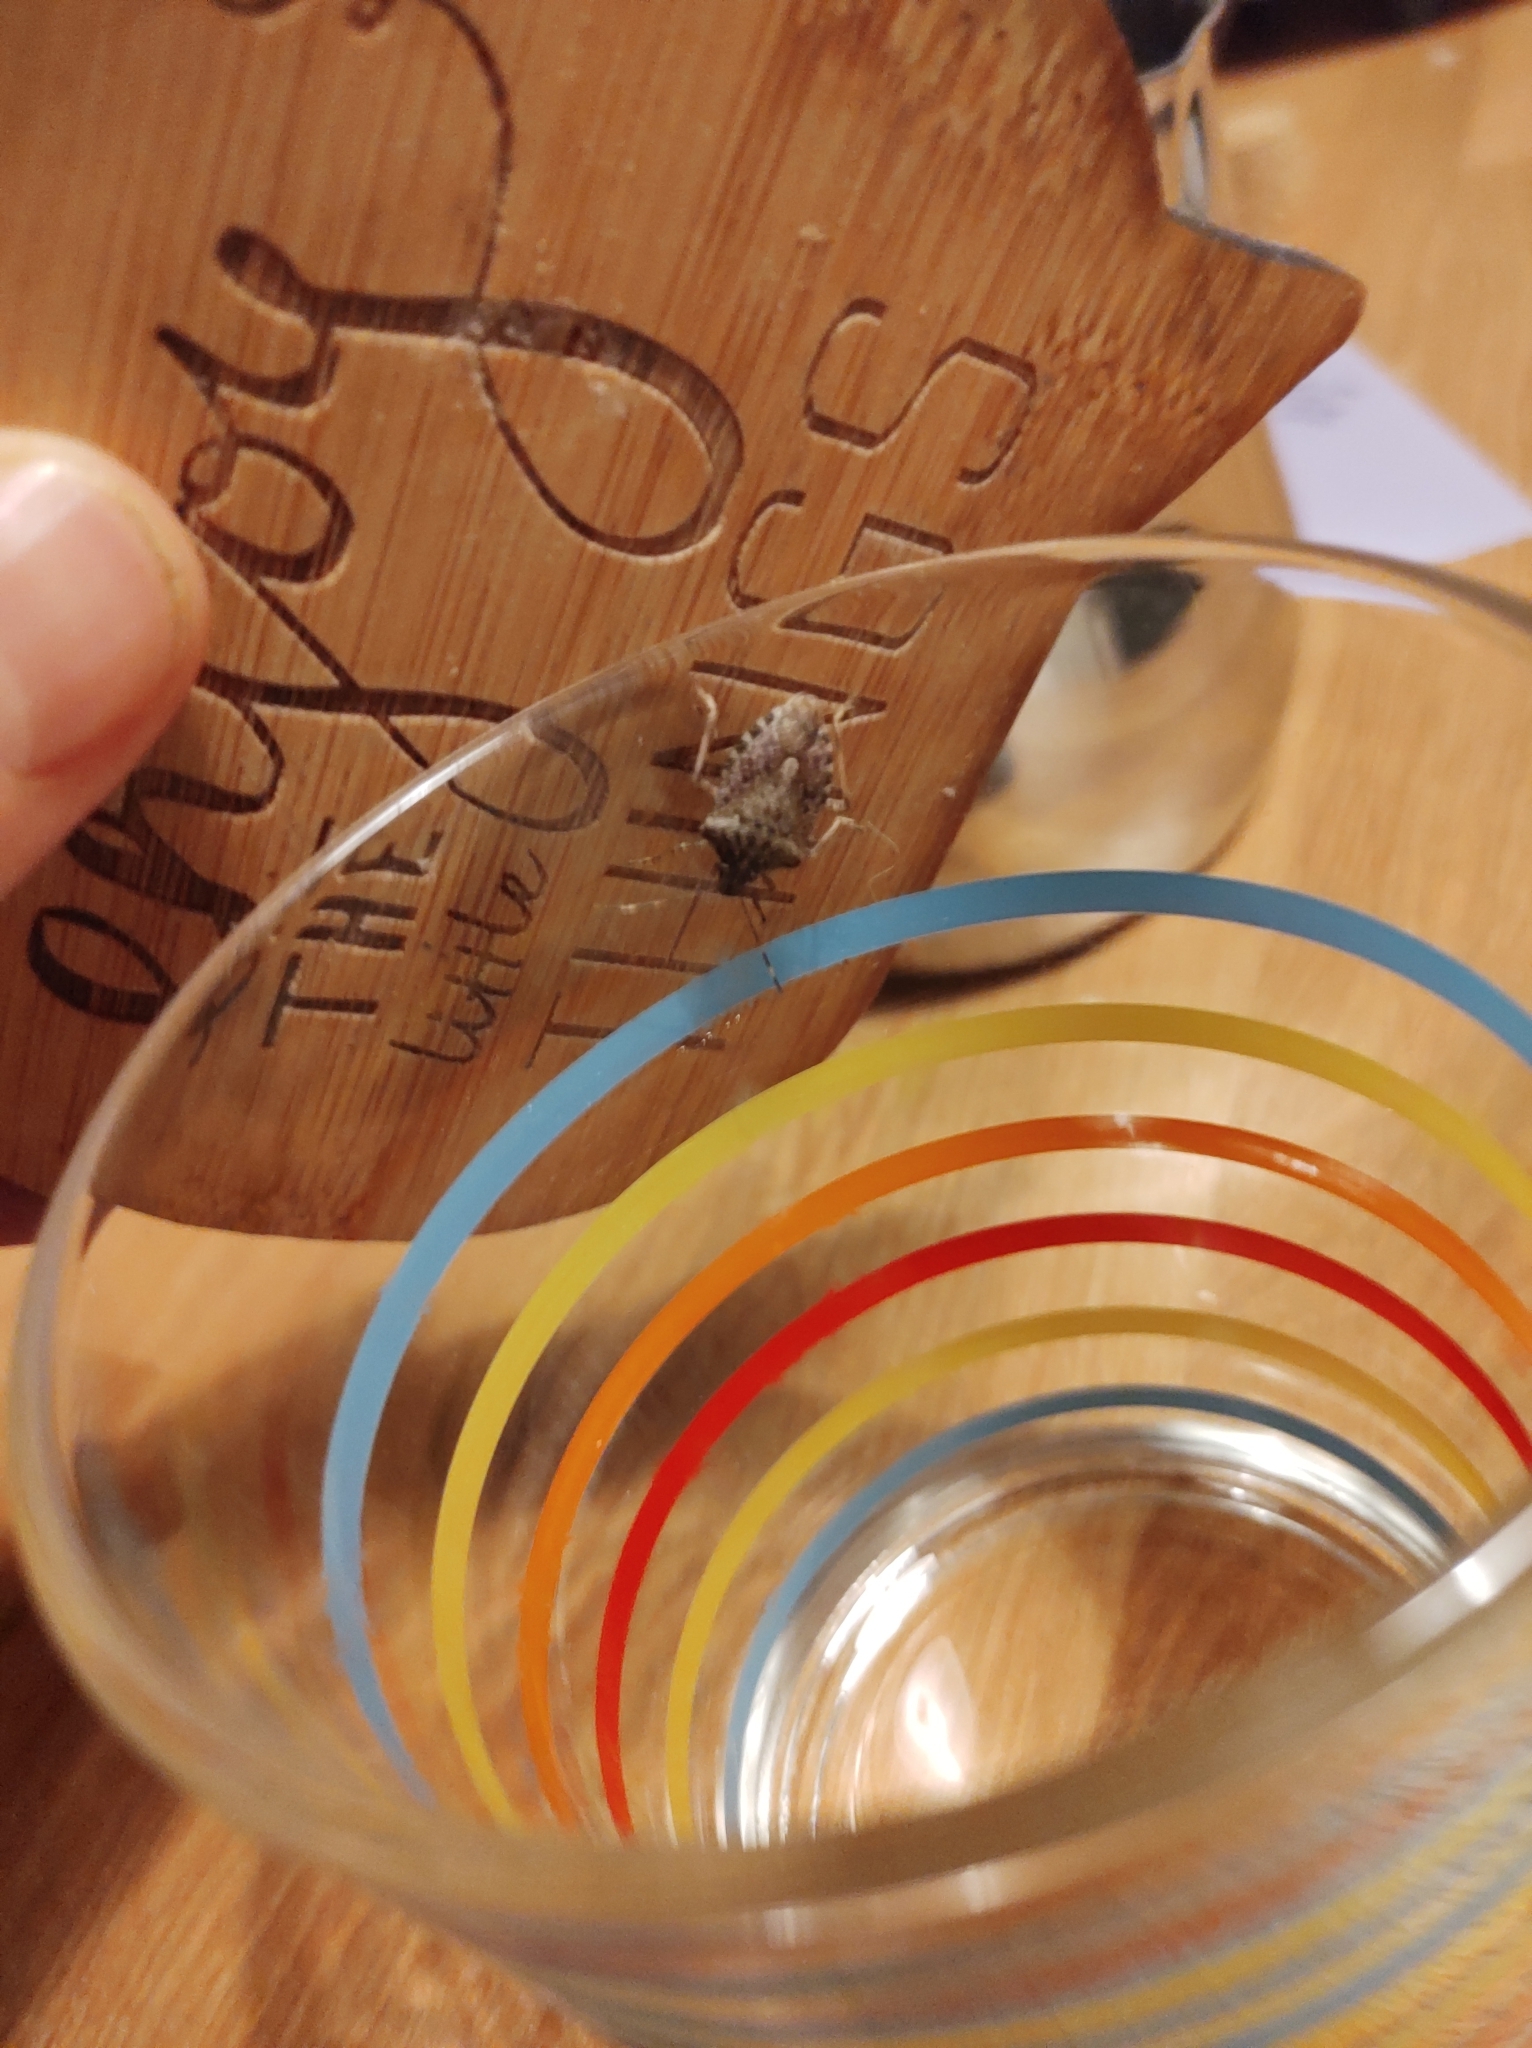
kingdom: Animalia
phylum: Arthropoda
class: Insecta
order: Hemiptera
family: Pentatomidae
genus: Halyomorpha
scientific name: Halyomorpha halys
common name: Brown marmorated stink bug
